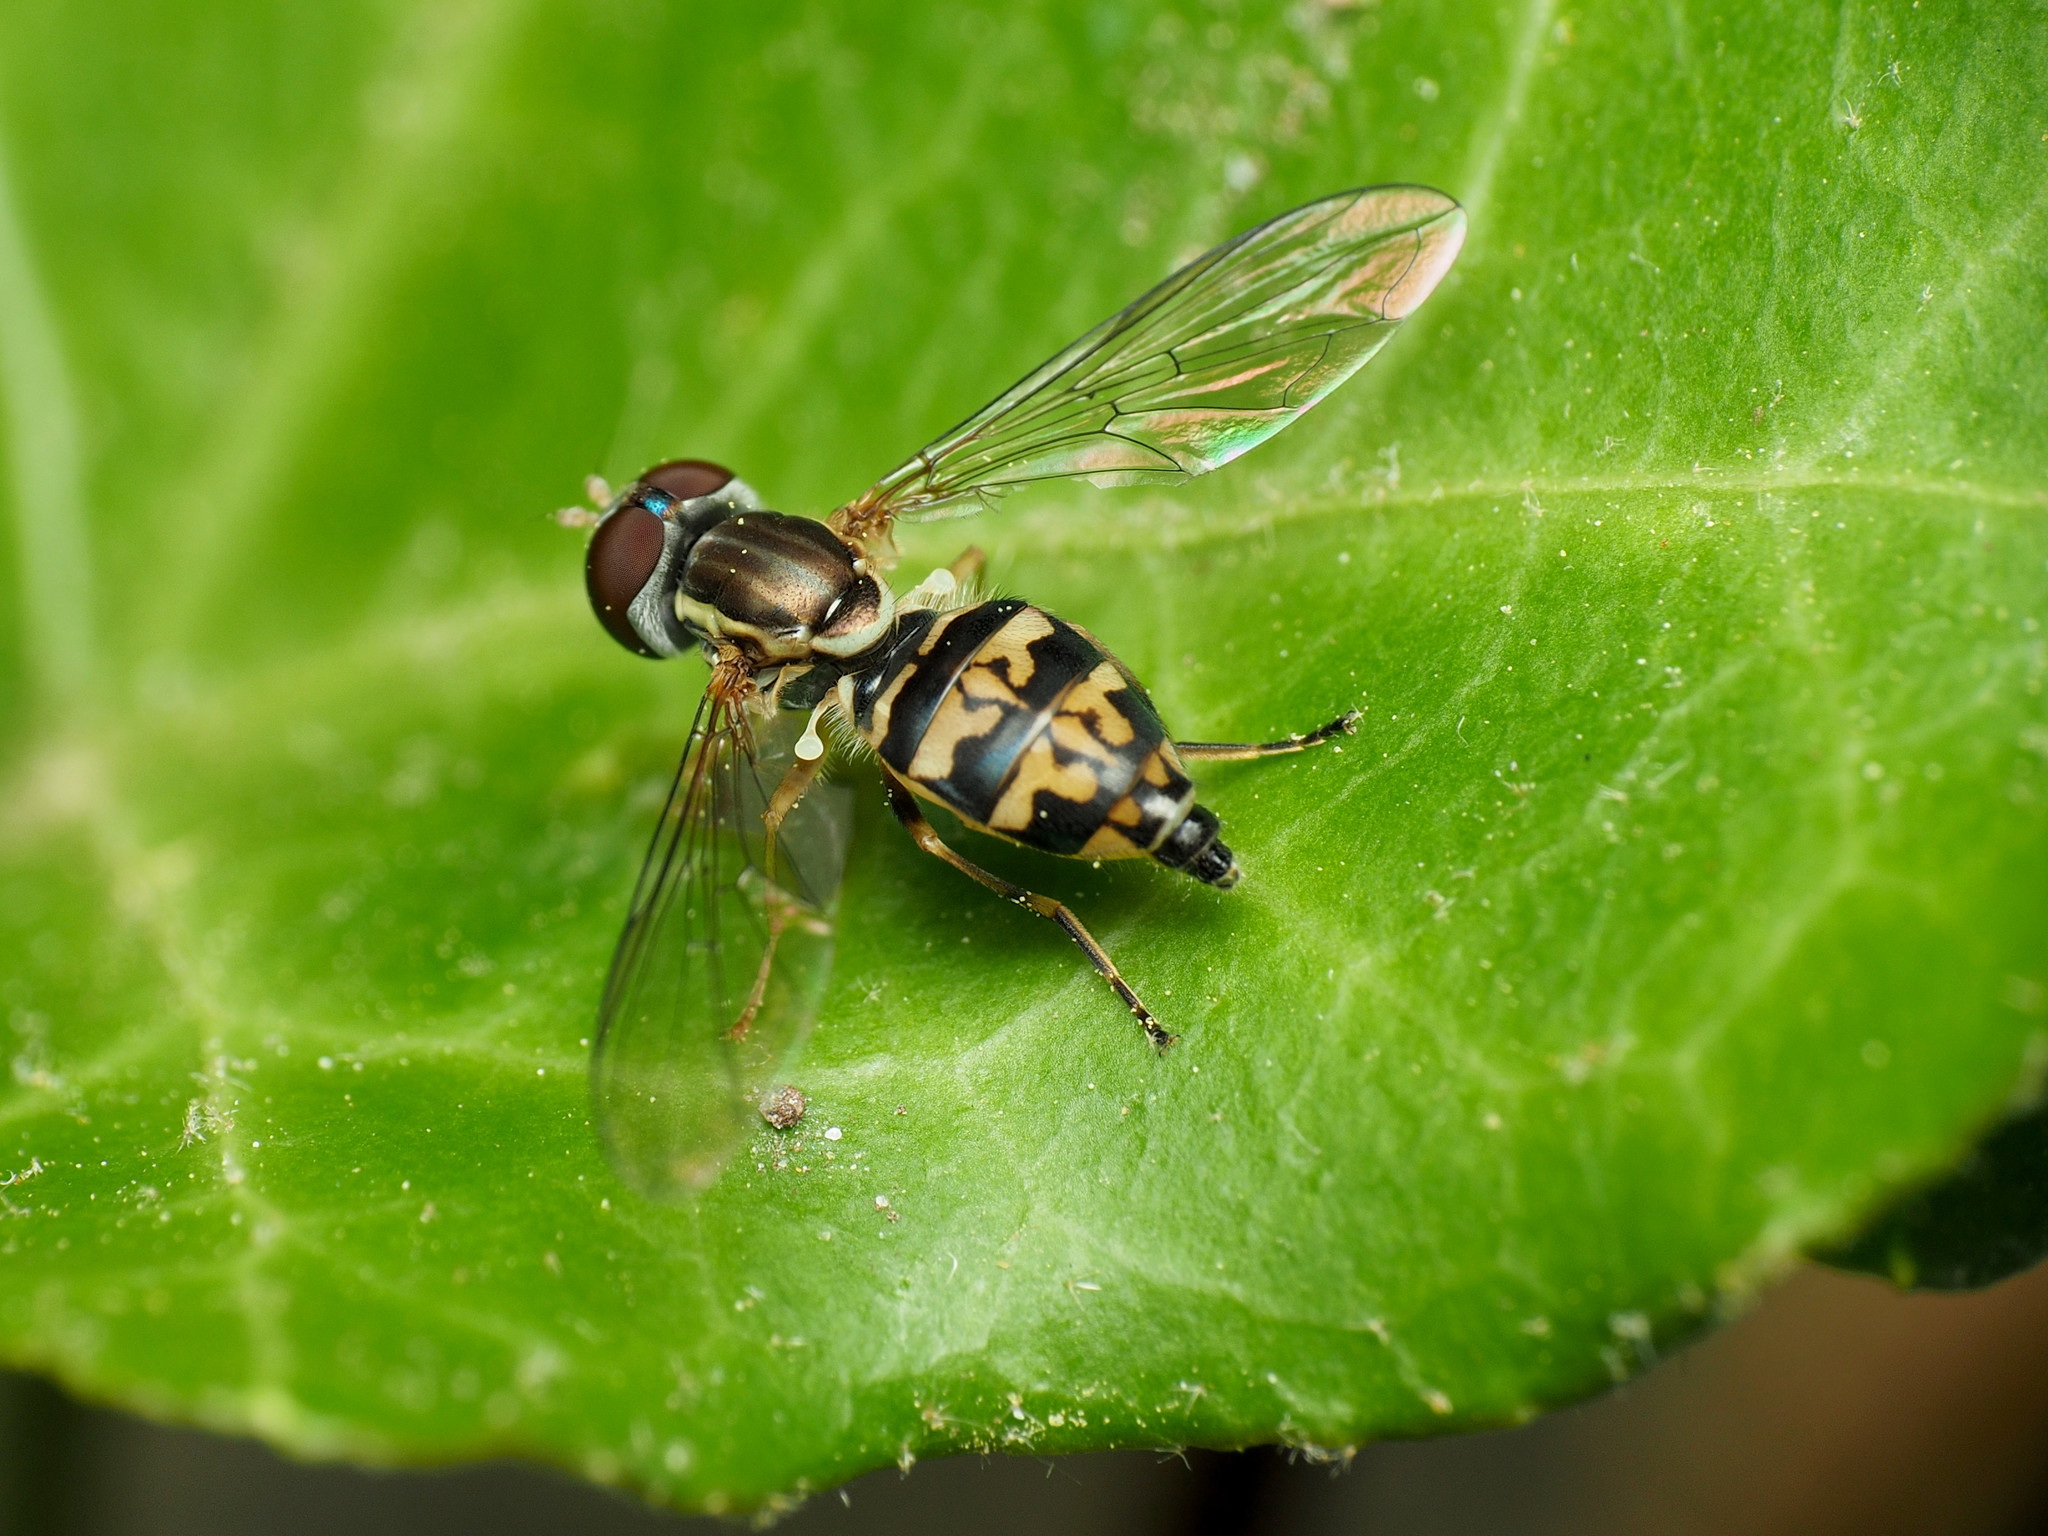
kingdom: Animalia
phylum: Arthropoda
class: Insecta
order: Diptera
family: Syrphidae
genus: Toxomerus
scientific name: Toxomerus geminatus
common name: Eastern calligrapher
